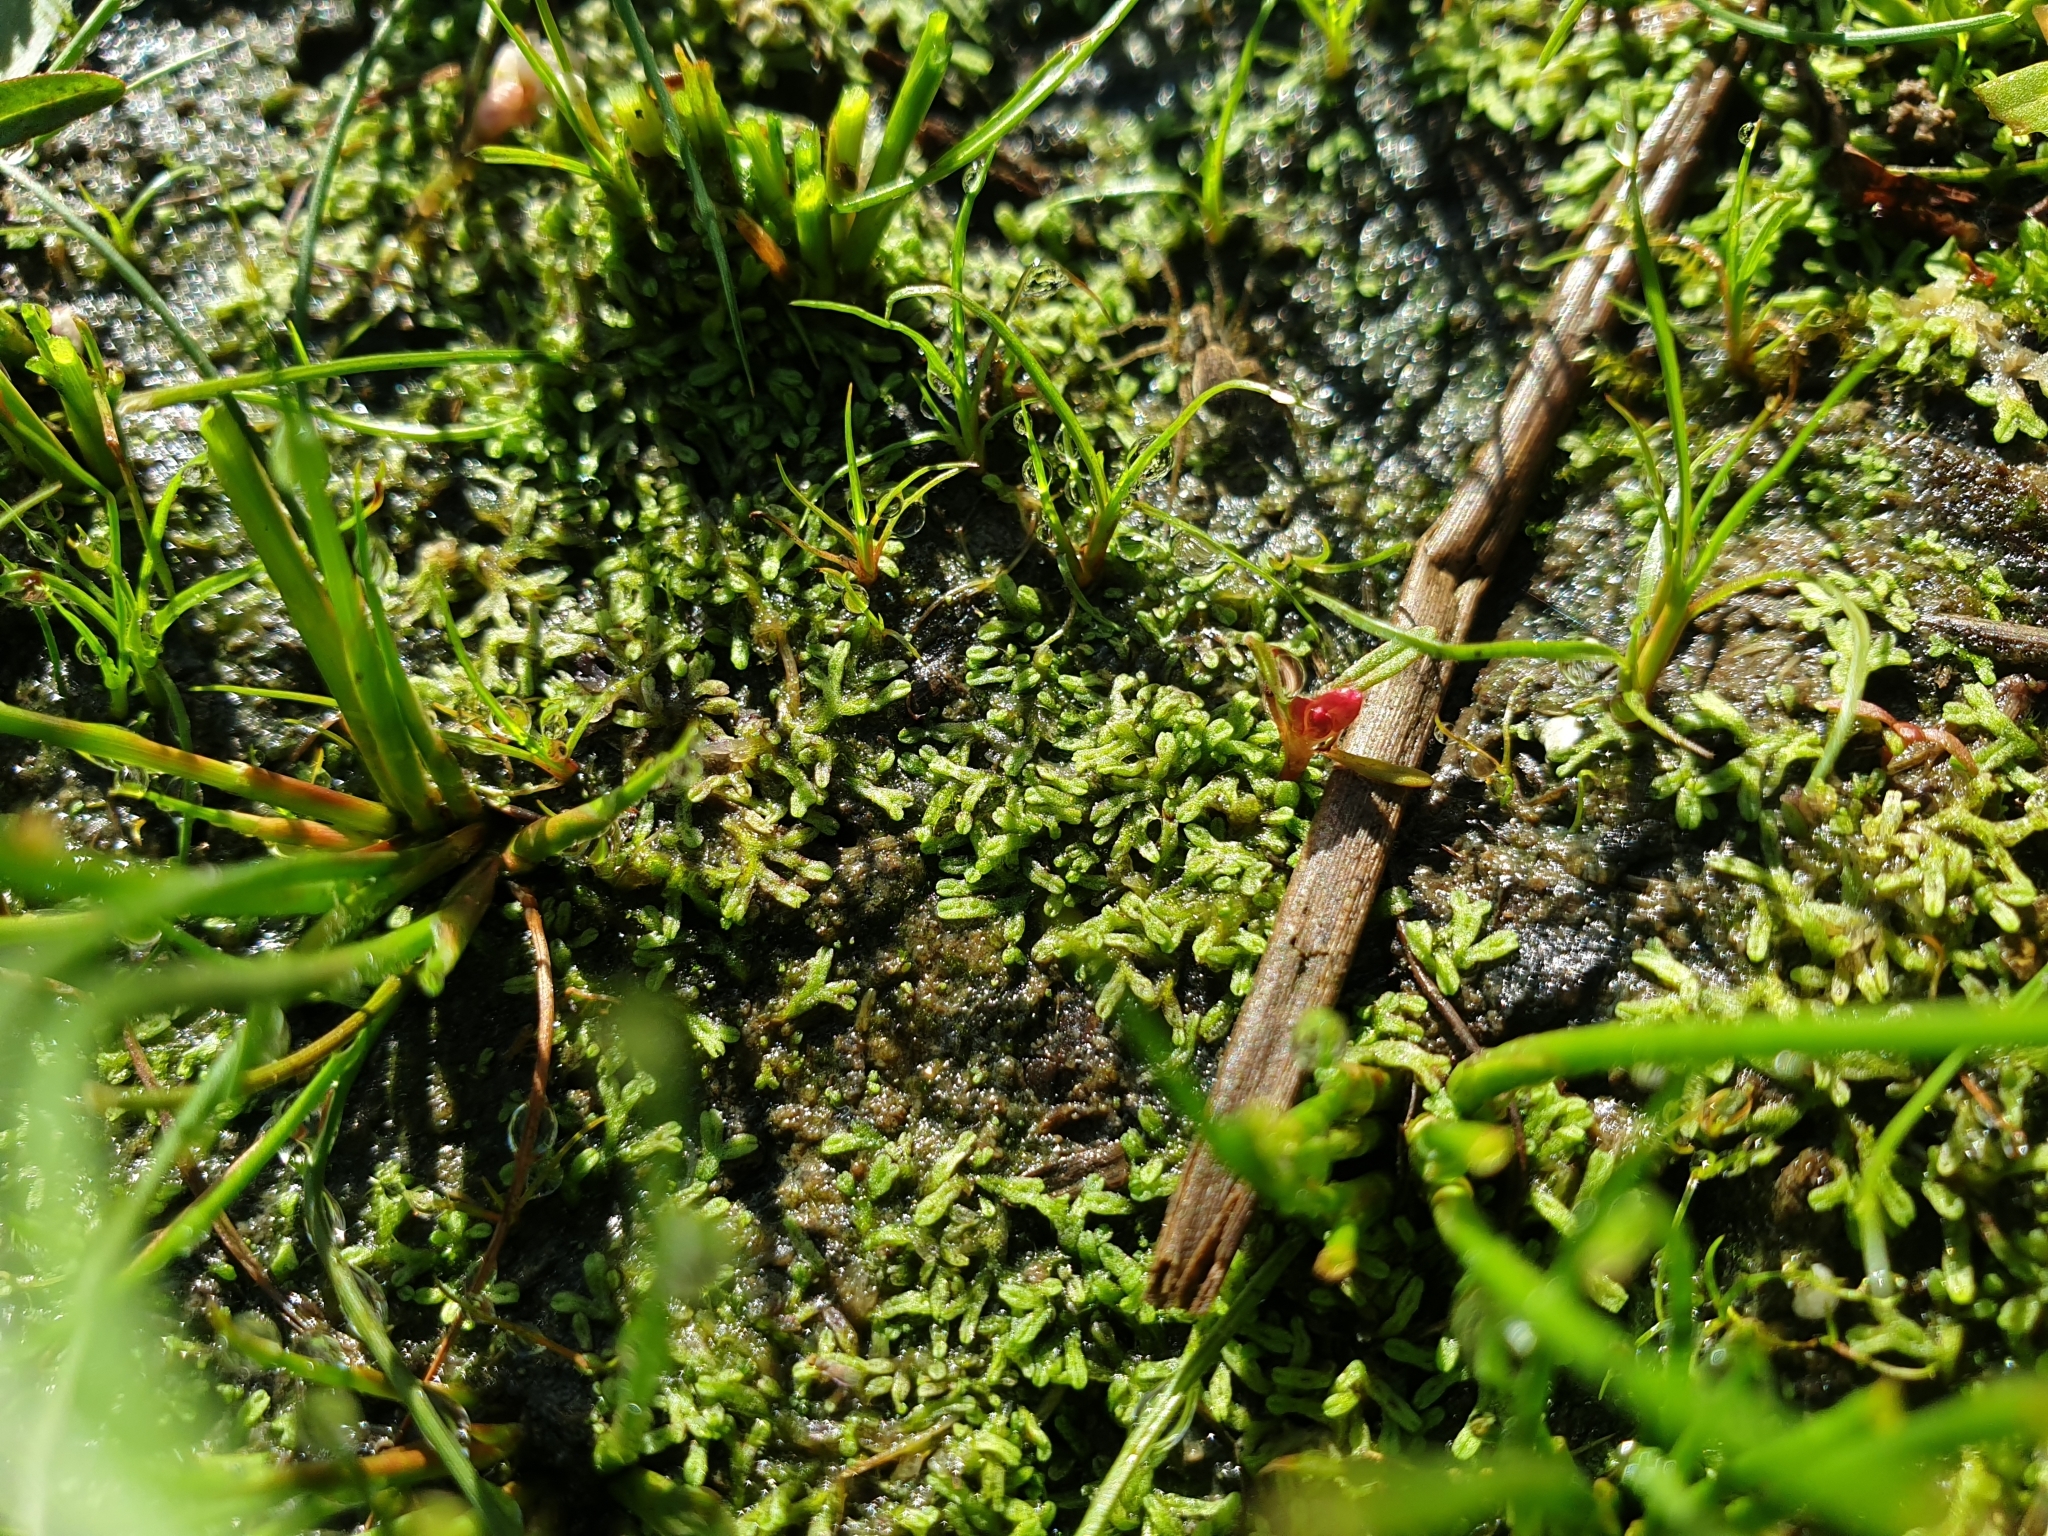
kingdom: Plantae
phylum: Marchantiophyta
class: Marchantiopsida
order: Marchantiales
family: Ricciaceae
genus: Riccia
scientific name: Riccia huebeneriana
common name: Violet crystalwort
